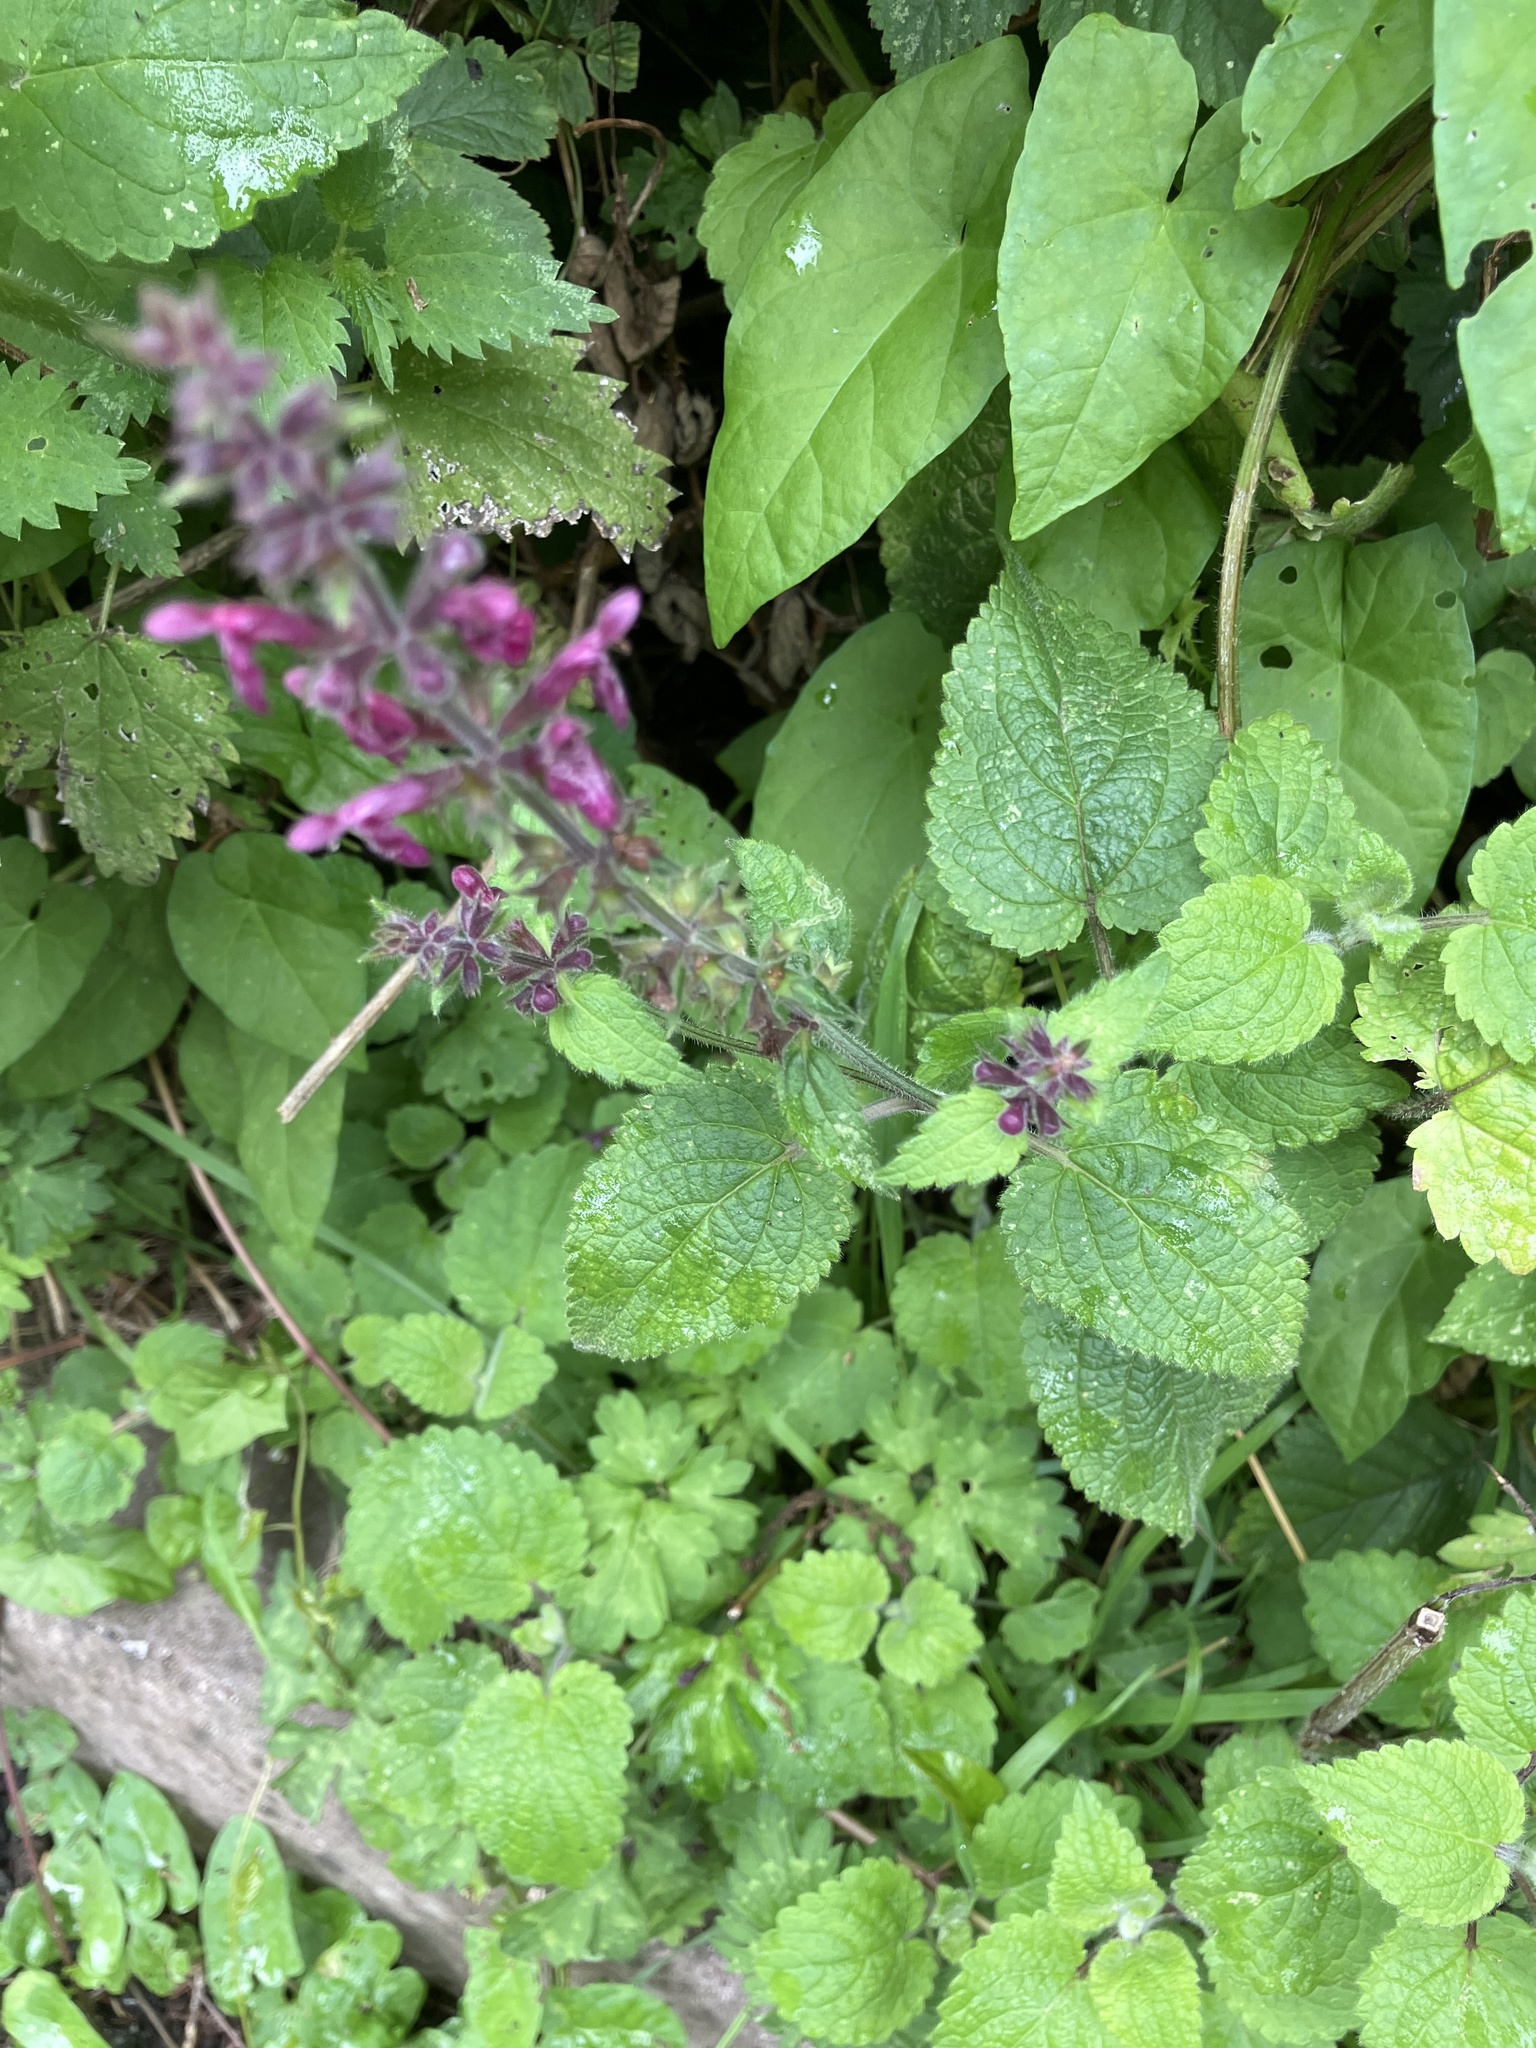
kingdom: Plantae
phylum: Tracheophyta
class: Magnoliopsida
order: Lamiales
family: Lamiaceae
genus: Stachys
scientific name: Stachys sylvatica
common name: Hedge woundwort
